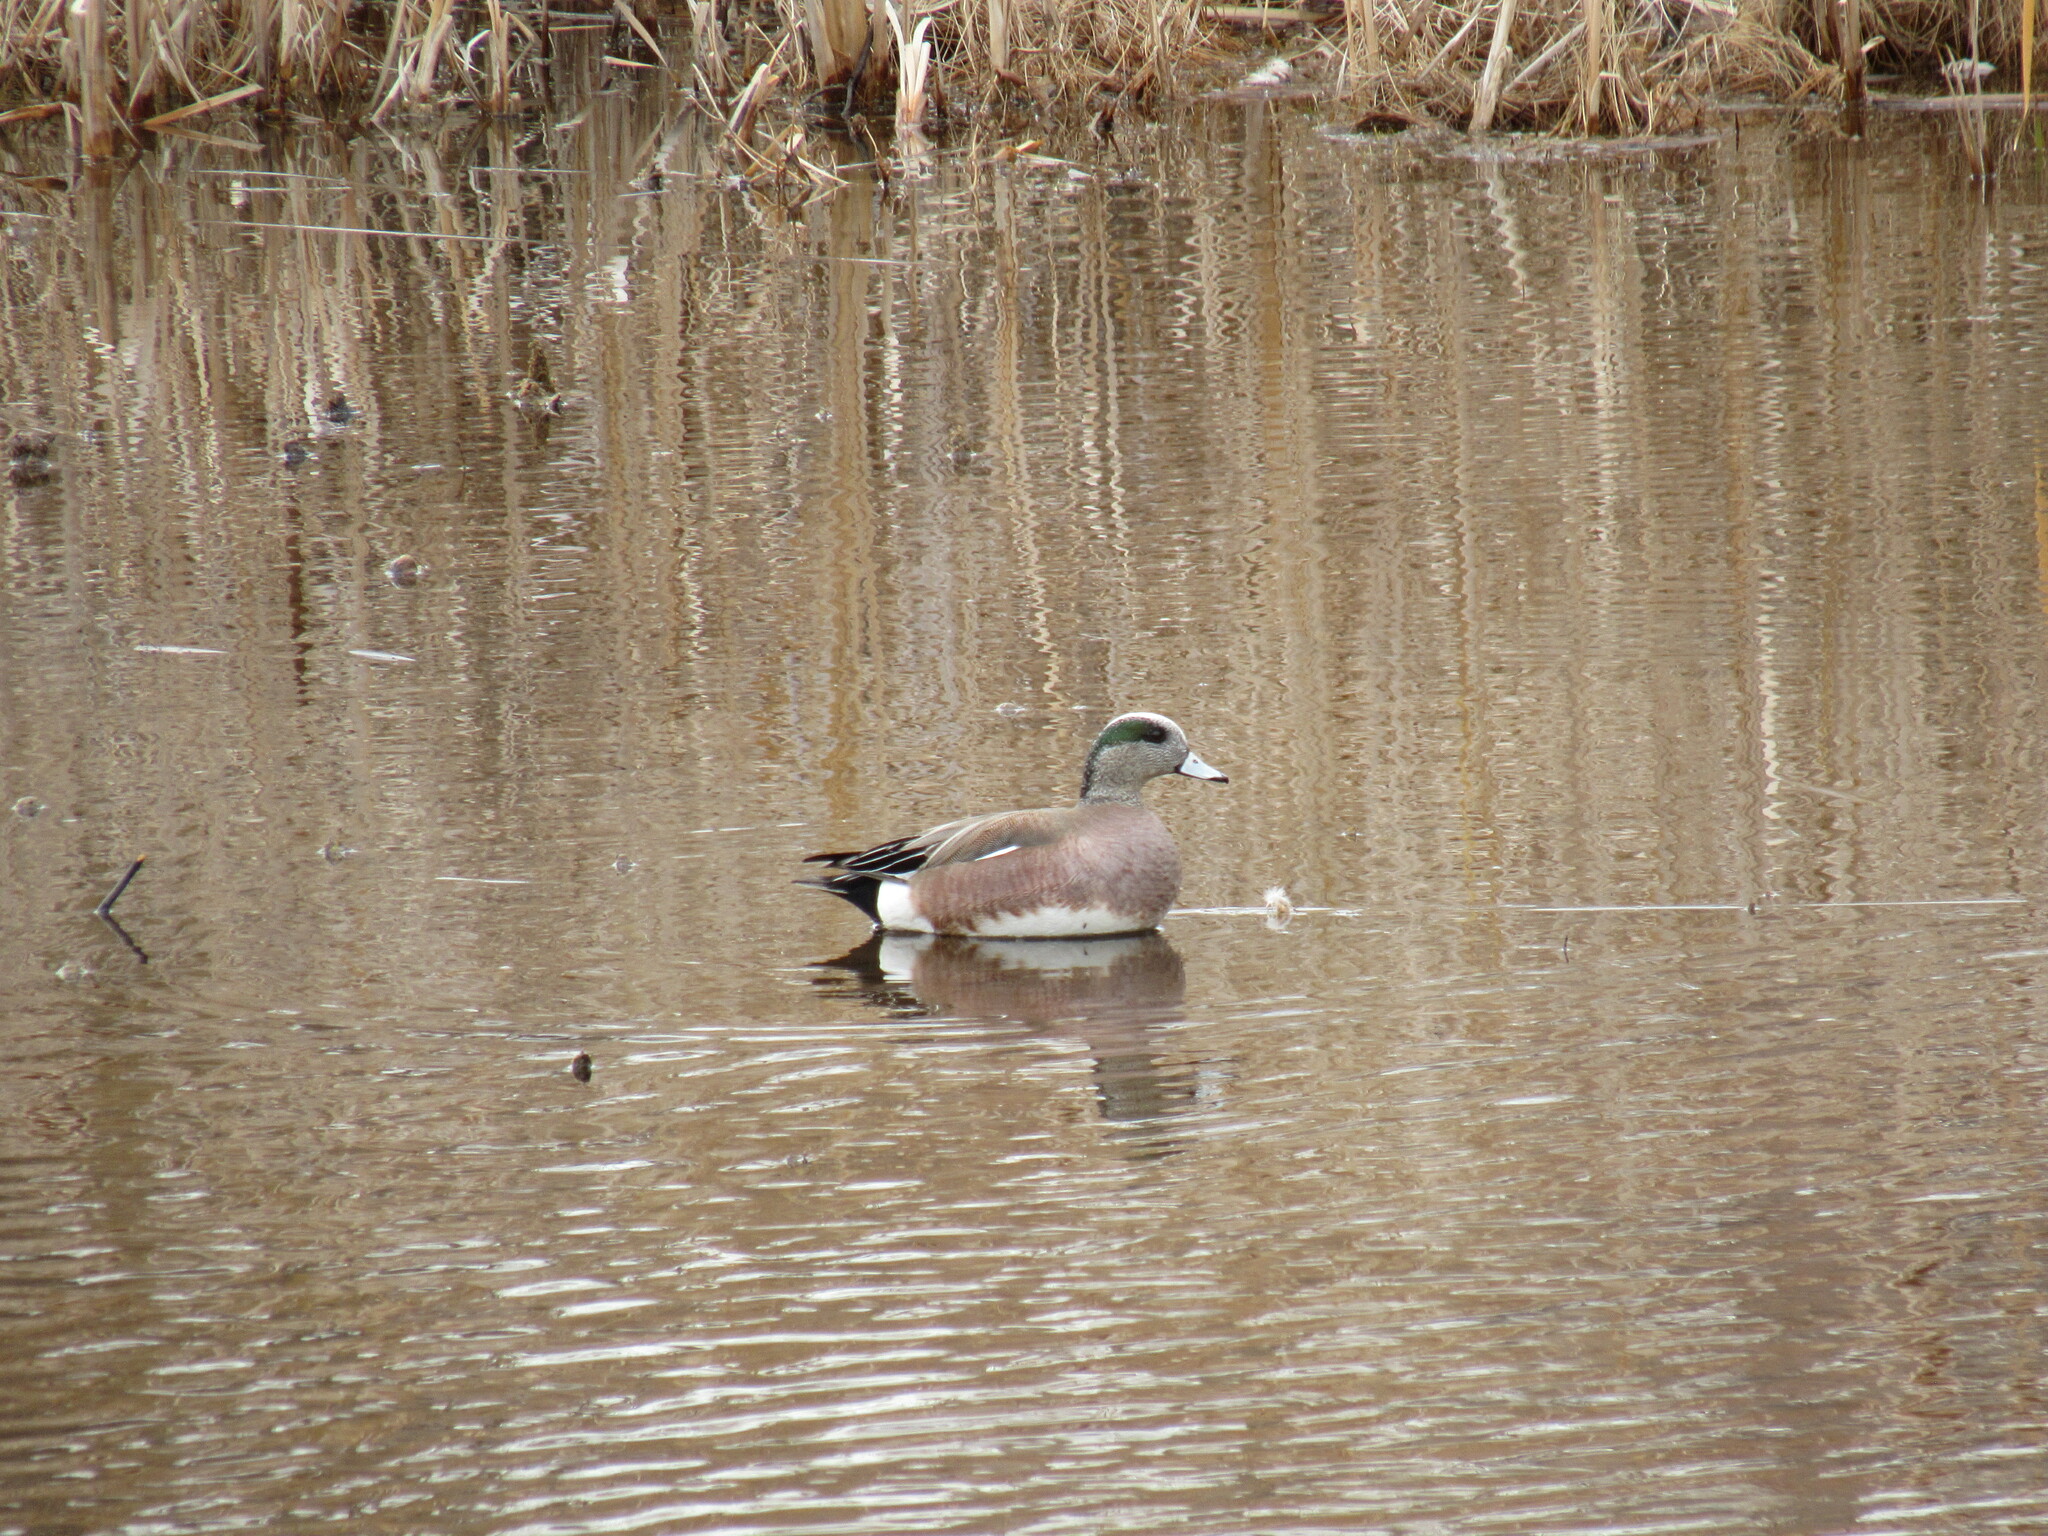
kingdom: Animalia
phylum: Chordata
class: Aves
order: Anseriformes
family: Anatidae
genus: Mareca
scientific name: Mareca americana
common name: American wigeon
